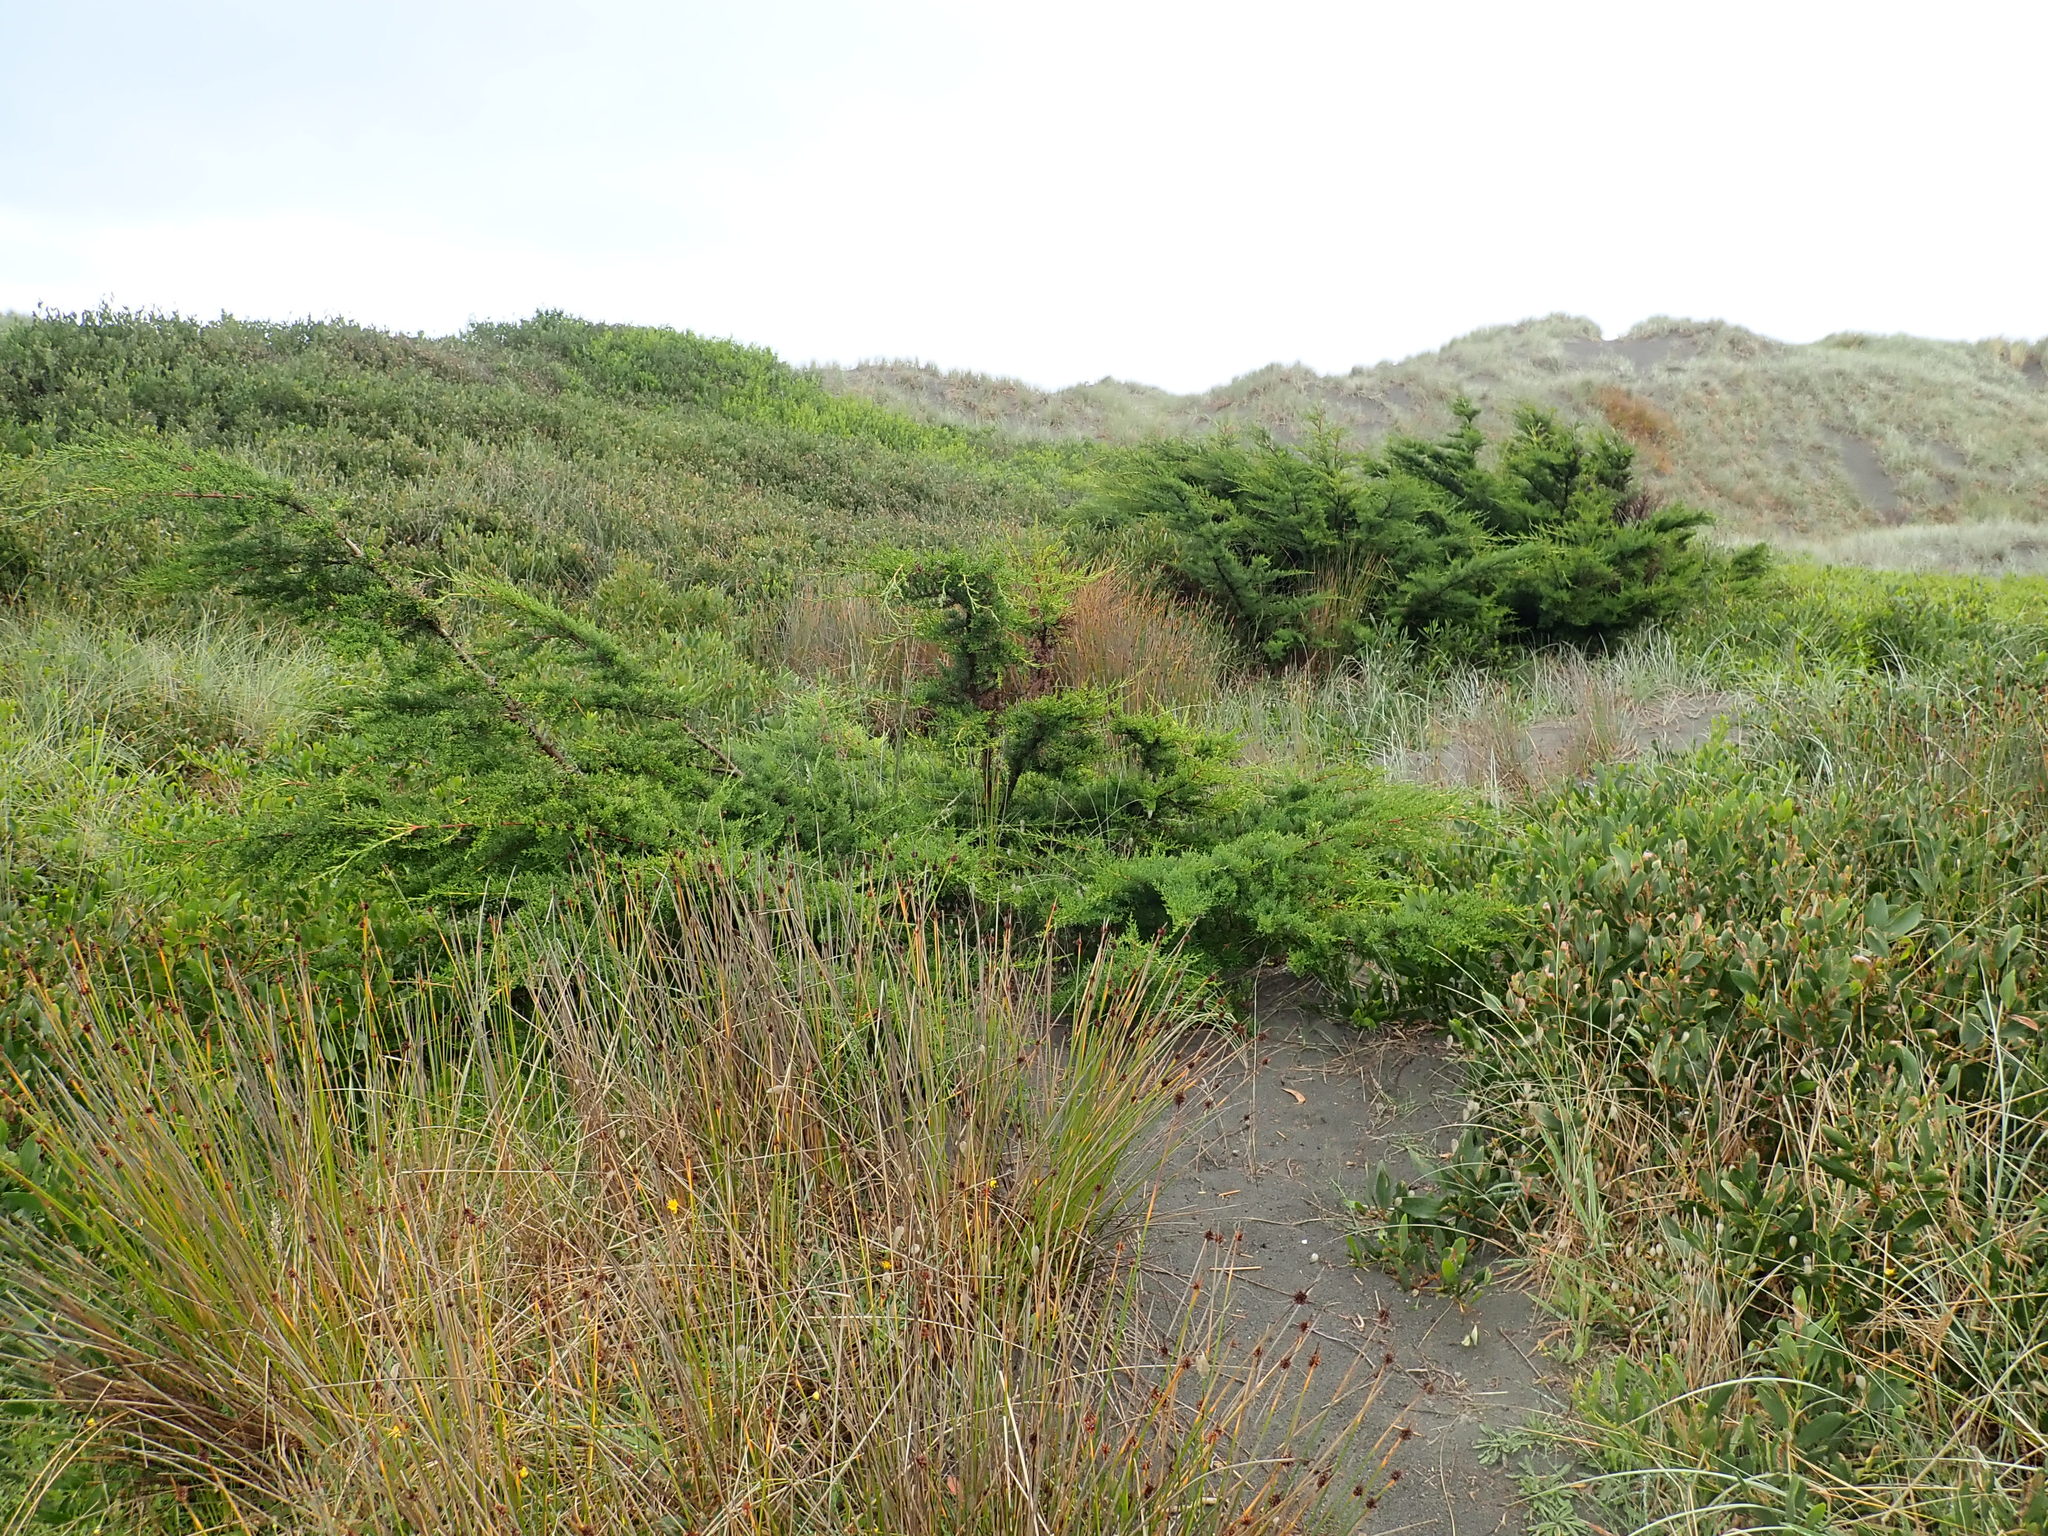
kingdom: Plantae
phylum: Tracheophyta
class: Pinopsida
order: Pinales
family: Cupressaceae
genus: Cupressus
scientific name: Cupressus macrocarpa
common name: Monterey cypress
